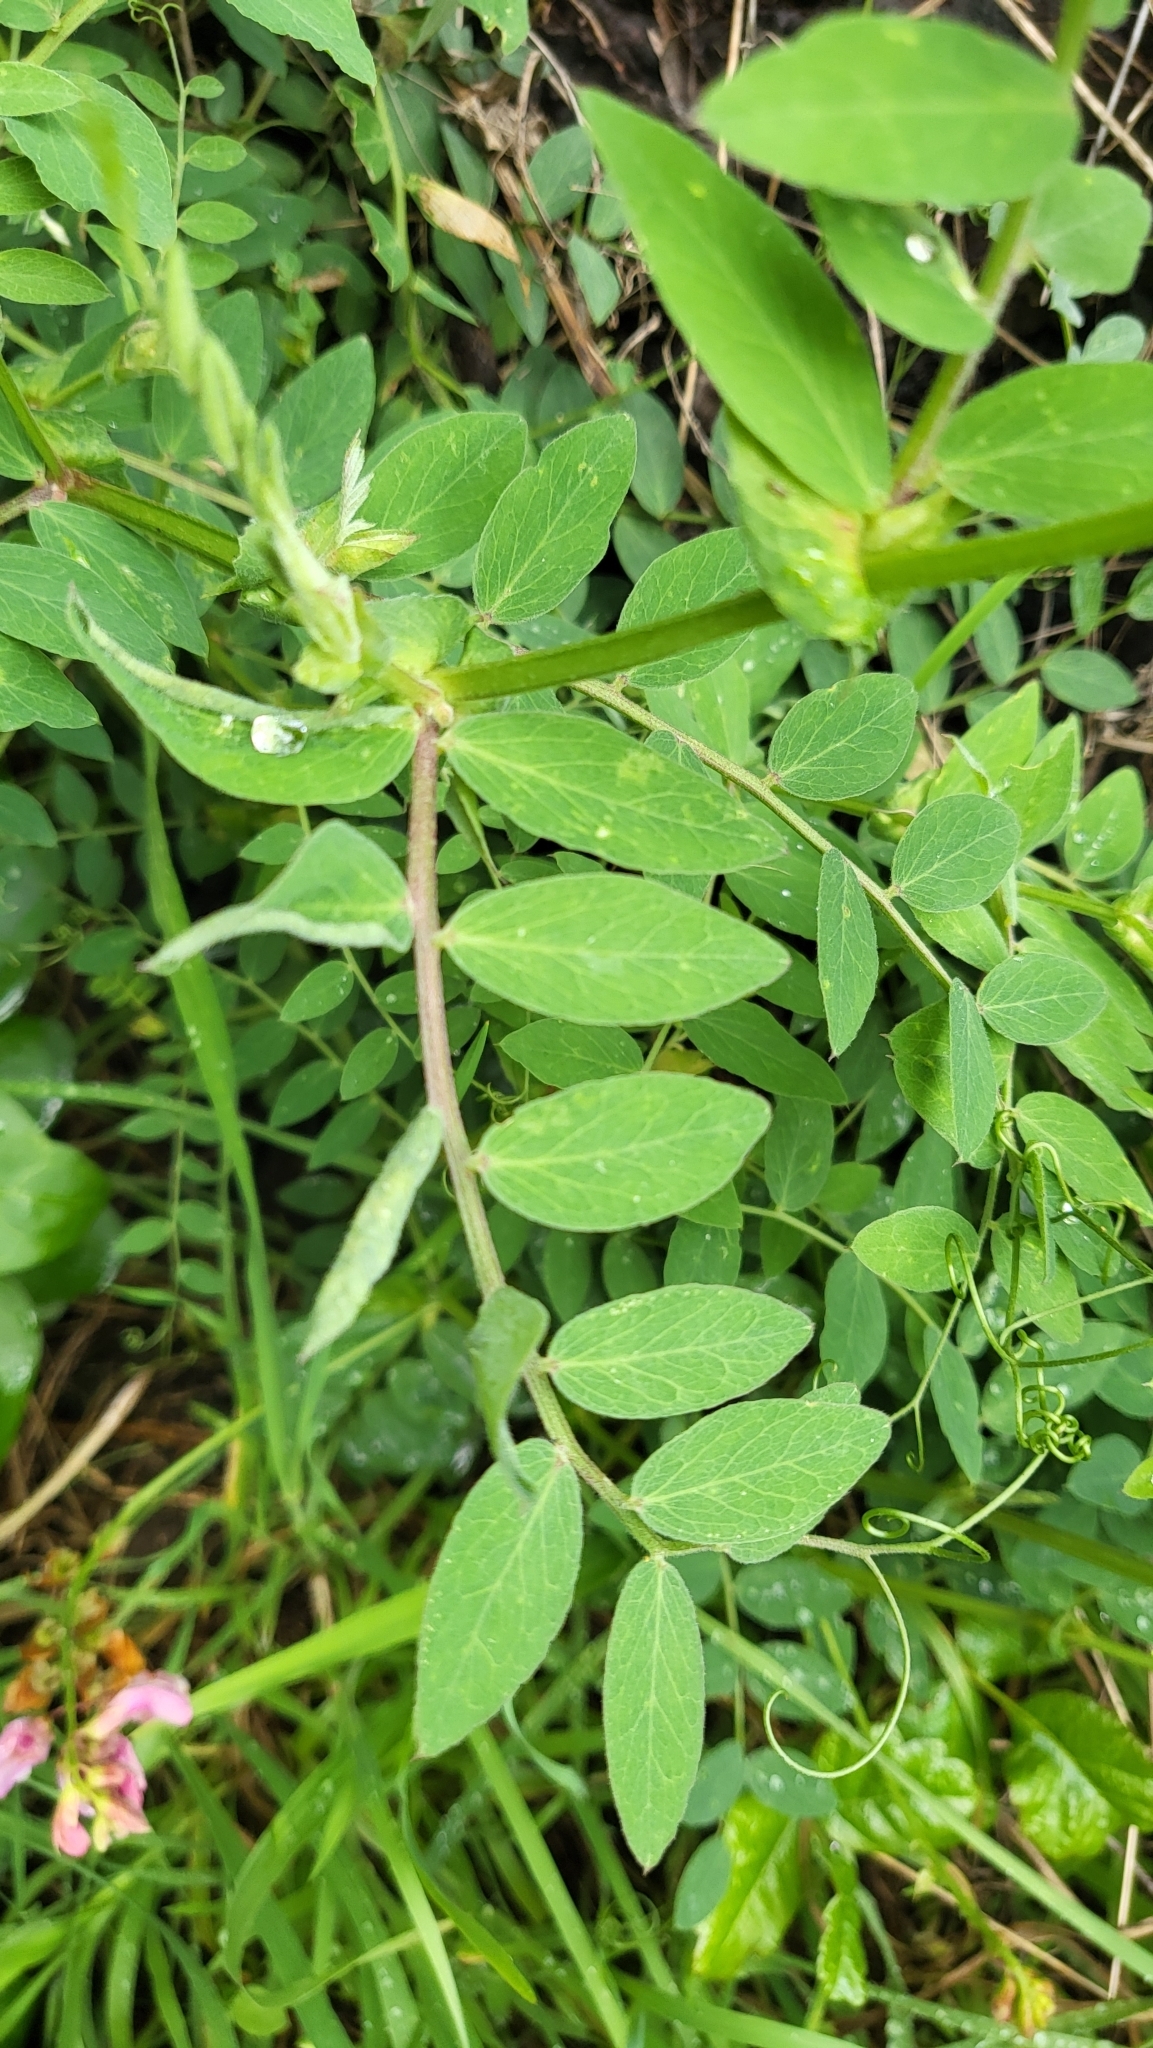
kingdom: Plantae
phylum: Tracheophyta
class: Magnoliopsida
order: Fabales
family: Fabaceae
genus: Lathyrus
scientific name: Lathyrus vestitus
